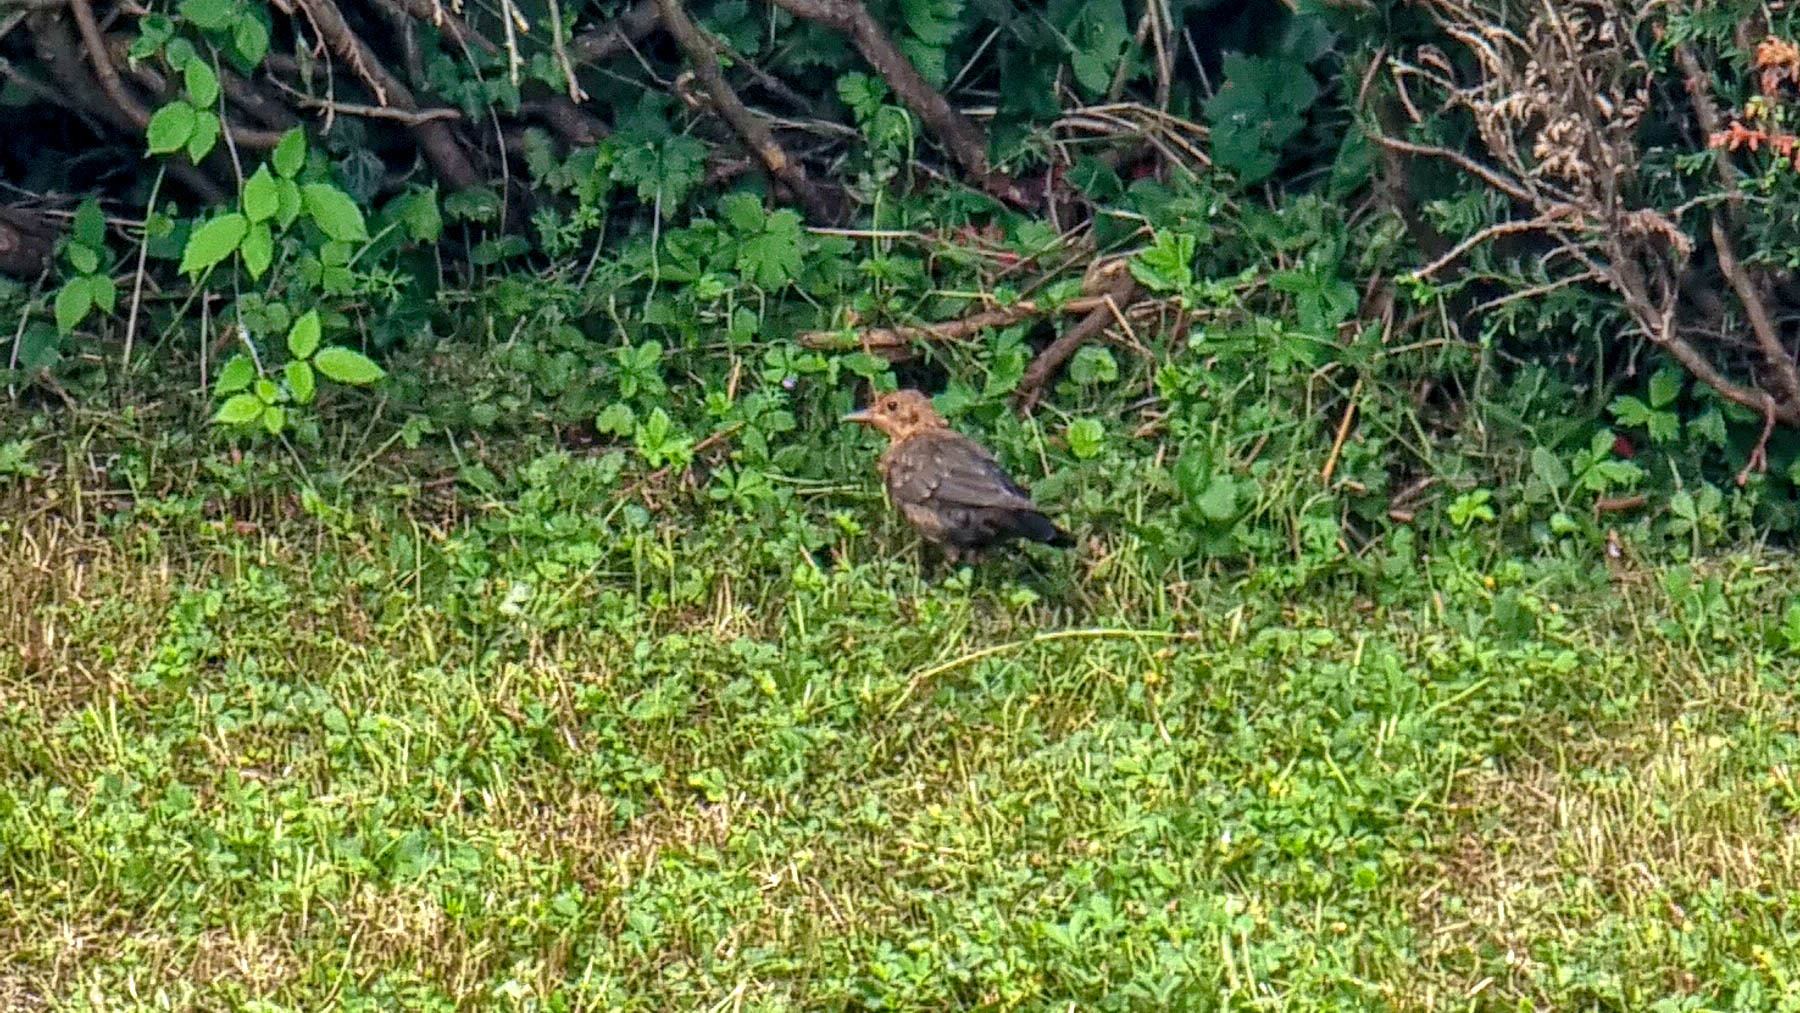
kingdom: Animalia
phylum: Chordata
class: Aves
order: Passeriformes
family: Turdidae
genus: Turdus
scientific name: Turdus merula
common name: Common blackbird
